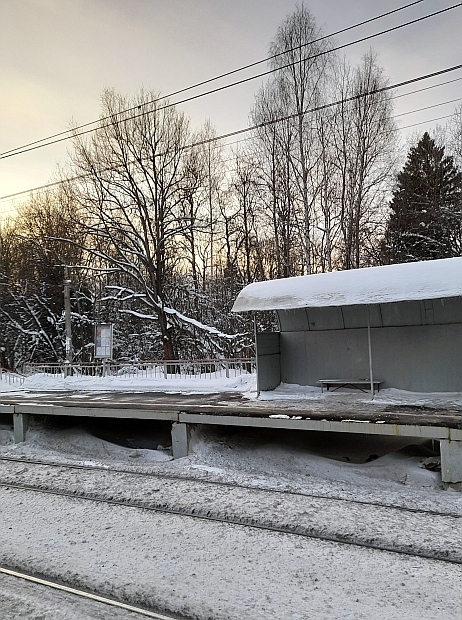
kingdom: Plantae
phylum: Tracheophyta
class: Magnoliopsida
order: Fagales
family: Fagaceae
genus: Quercus
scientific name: Quercus robur
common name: Pedunculate oak
